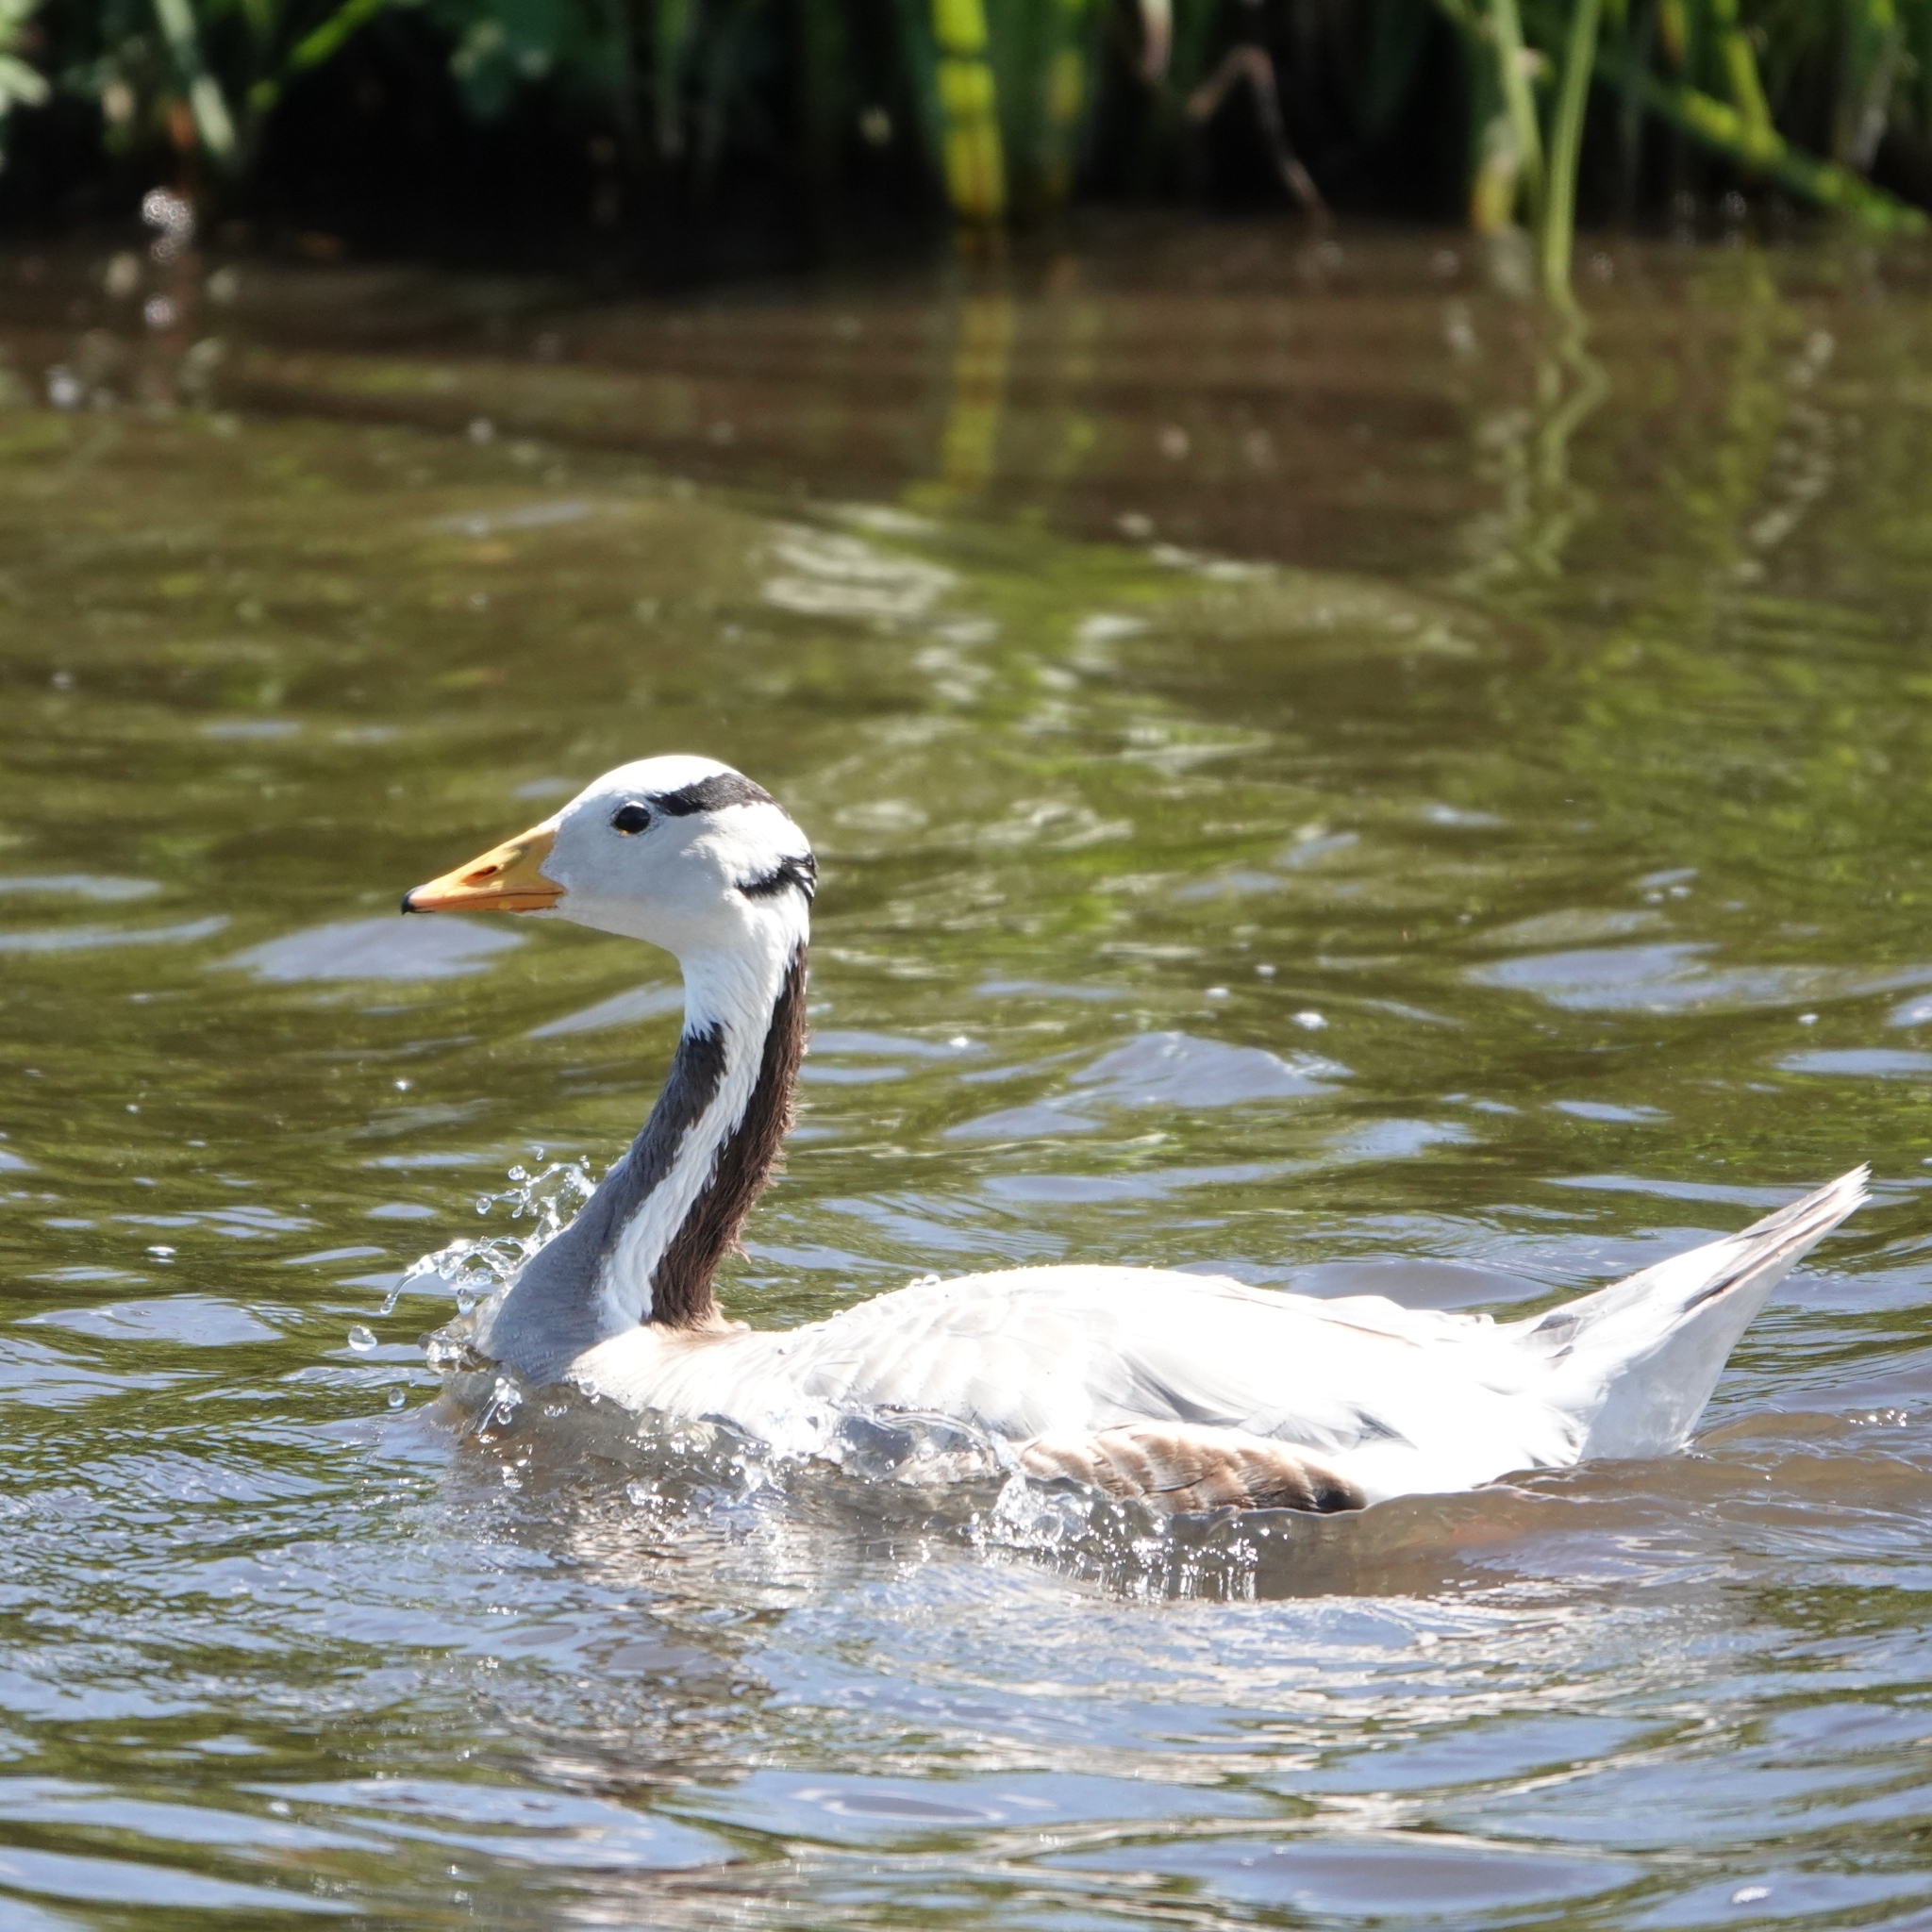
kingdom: Animalia
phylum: Chordata
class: Aves
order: Anseriformes
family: Anatidae
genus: Anser
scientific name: Anser indicus
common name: Bar-headed goose
